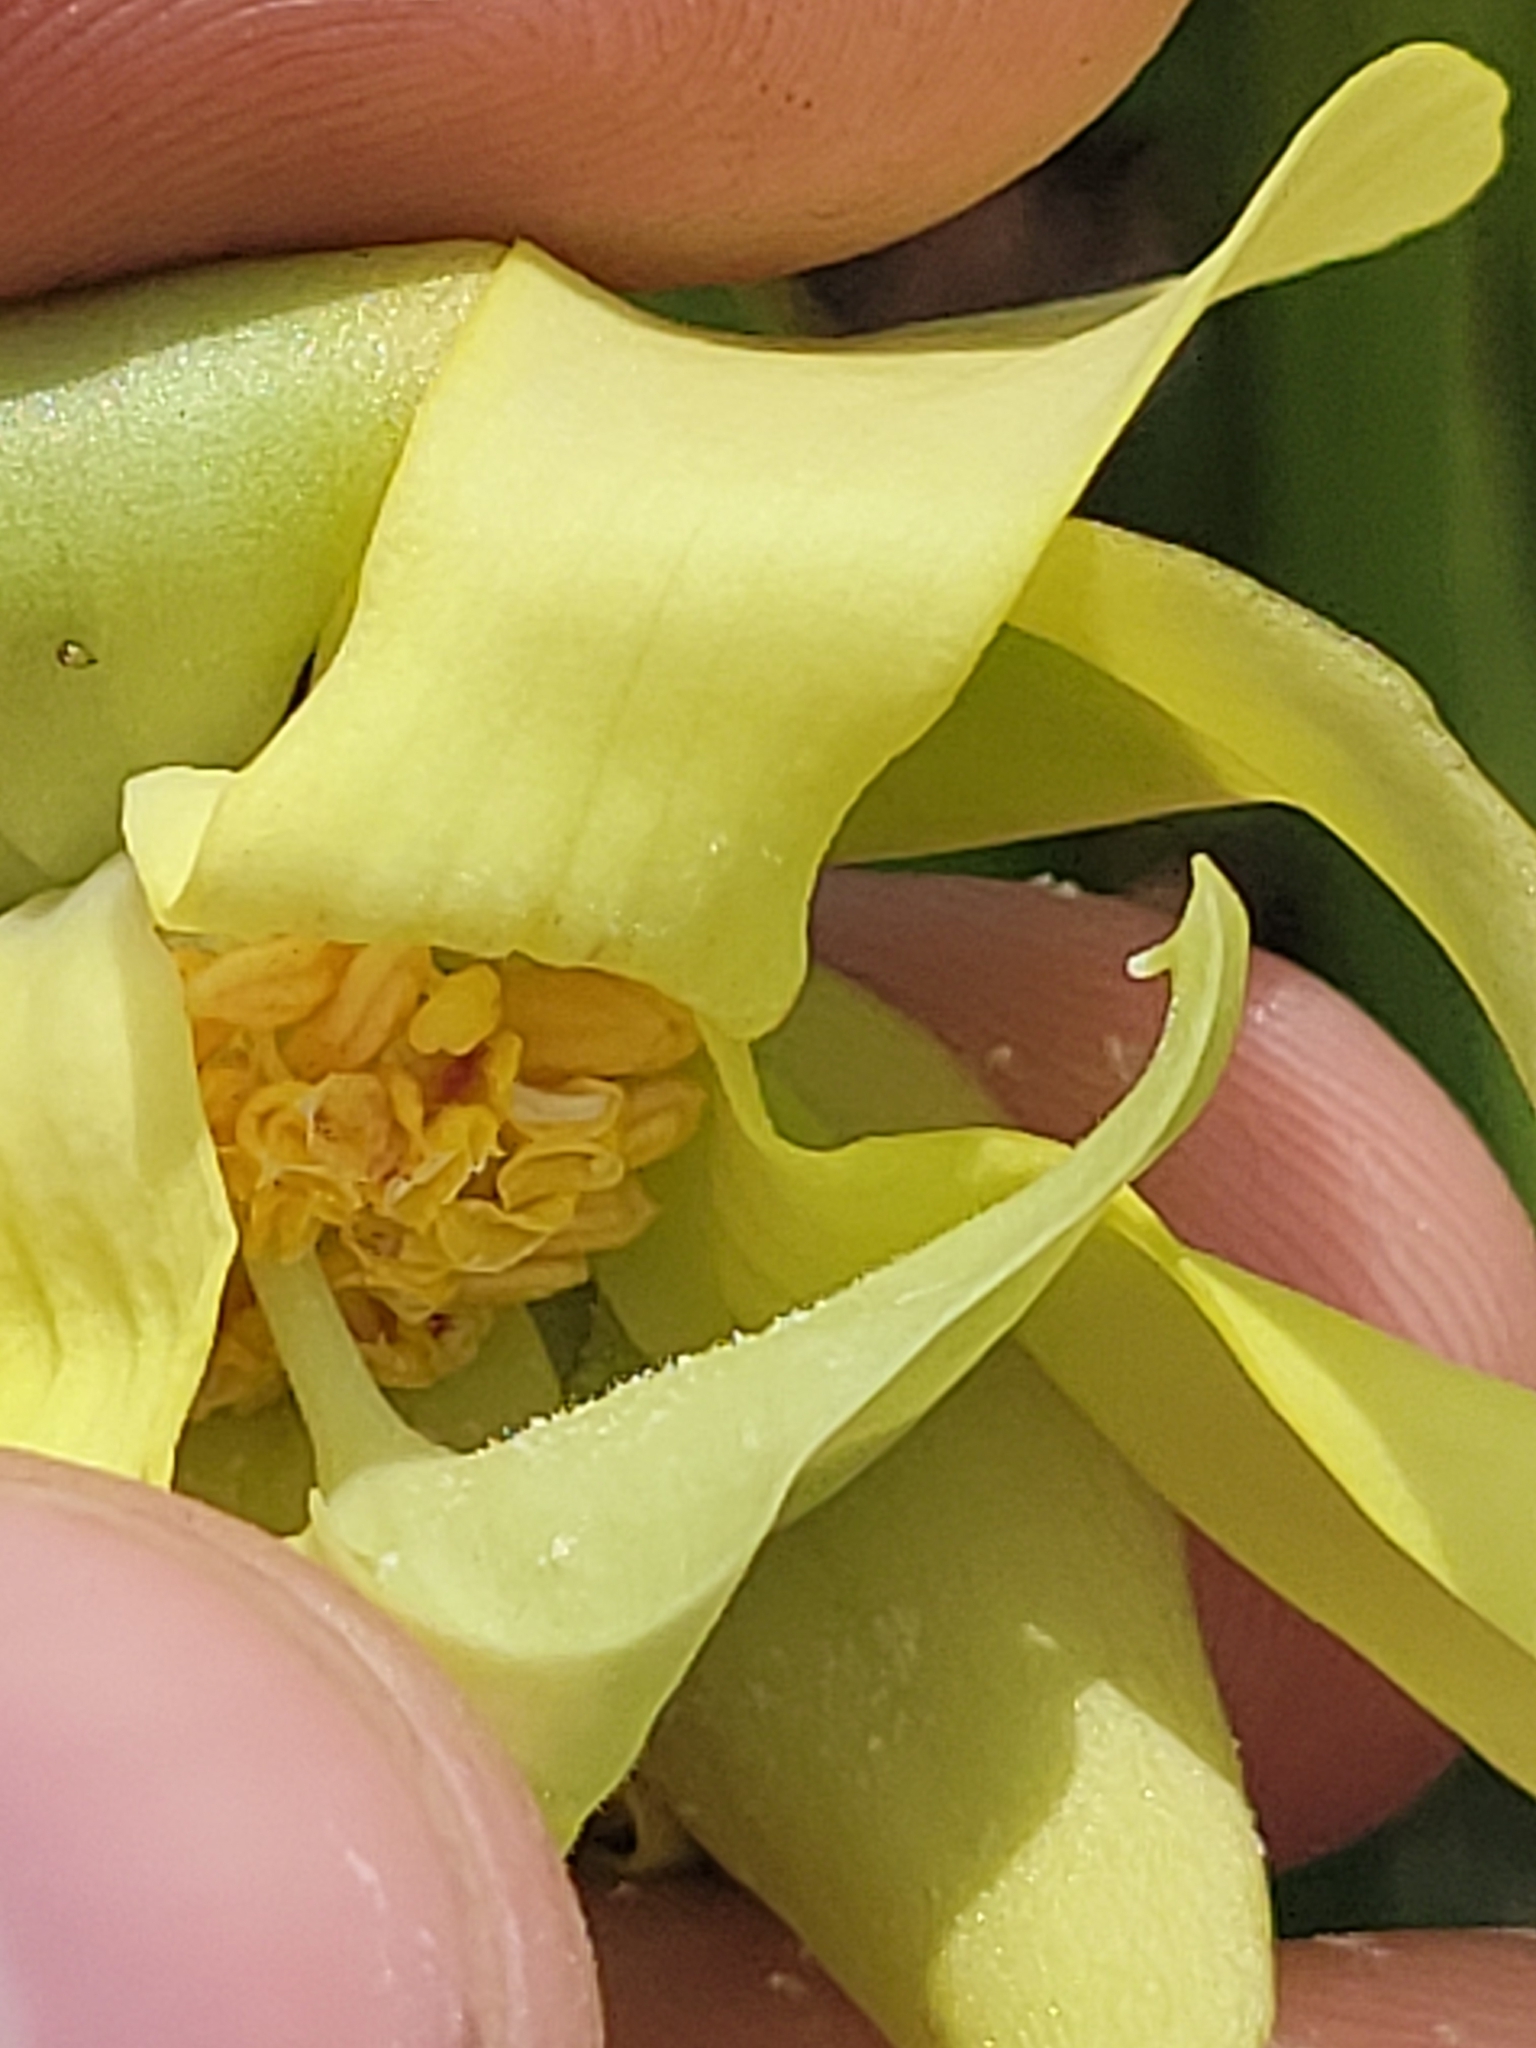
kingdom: Plantae
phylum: Tracheophyta
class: Magnoliopsida
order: Ericales
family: Sarraceniaceae
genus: Sarracenia
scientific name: Sarracenia minor
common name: Rainhat-trumpet
